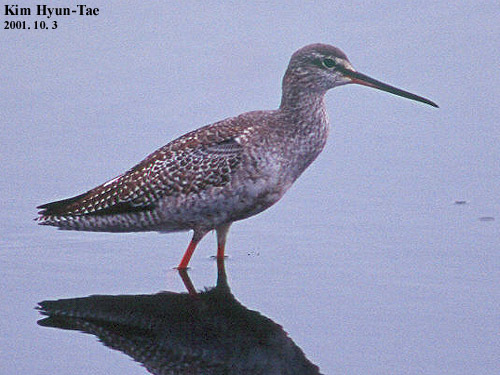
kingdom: Animalia
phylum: Chordata
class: Aves
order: Charadriiformes
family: Scolopacidae
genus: Tringa
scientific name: Tringa erythropus
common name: Spotted redshank
